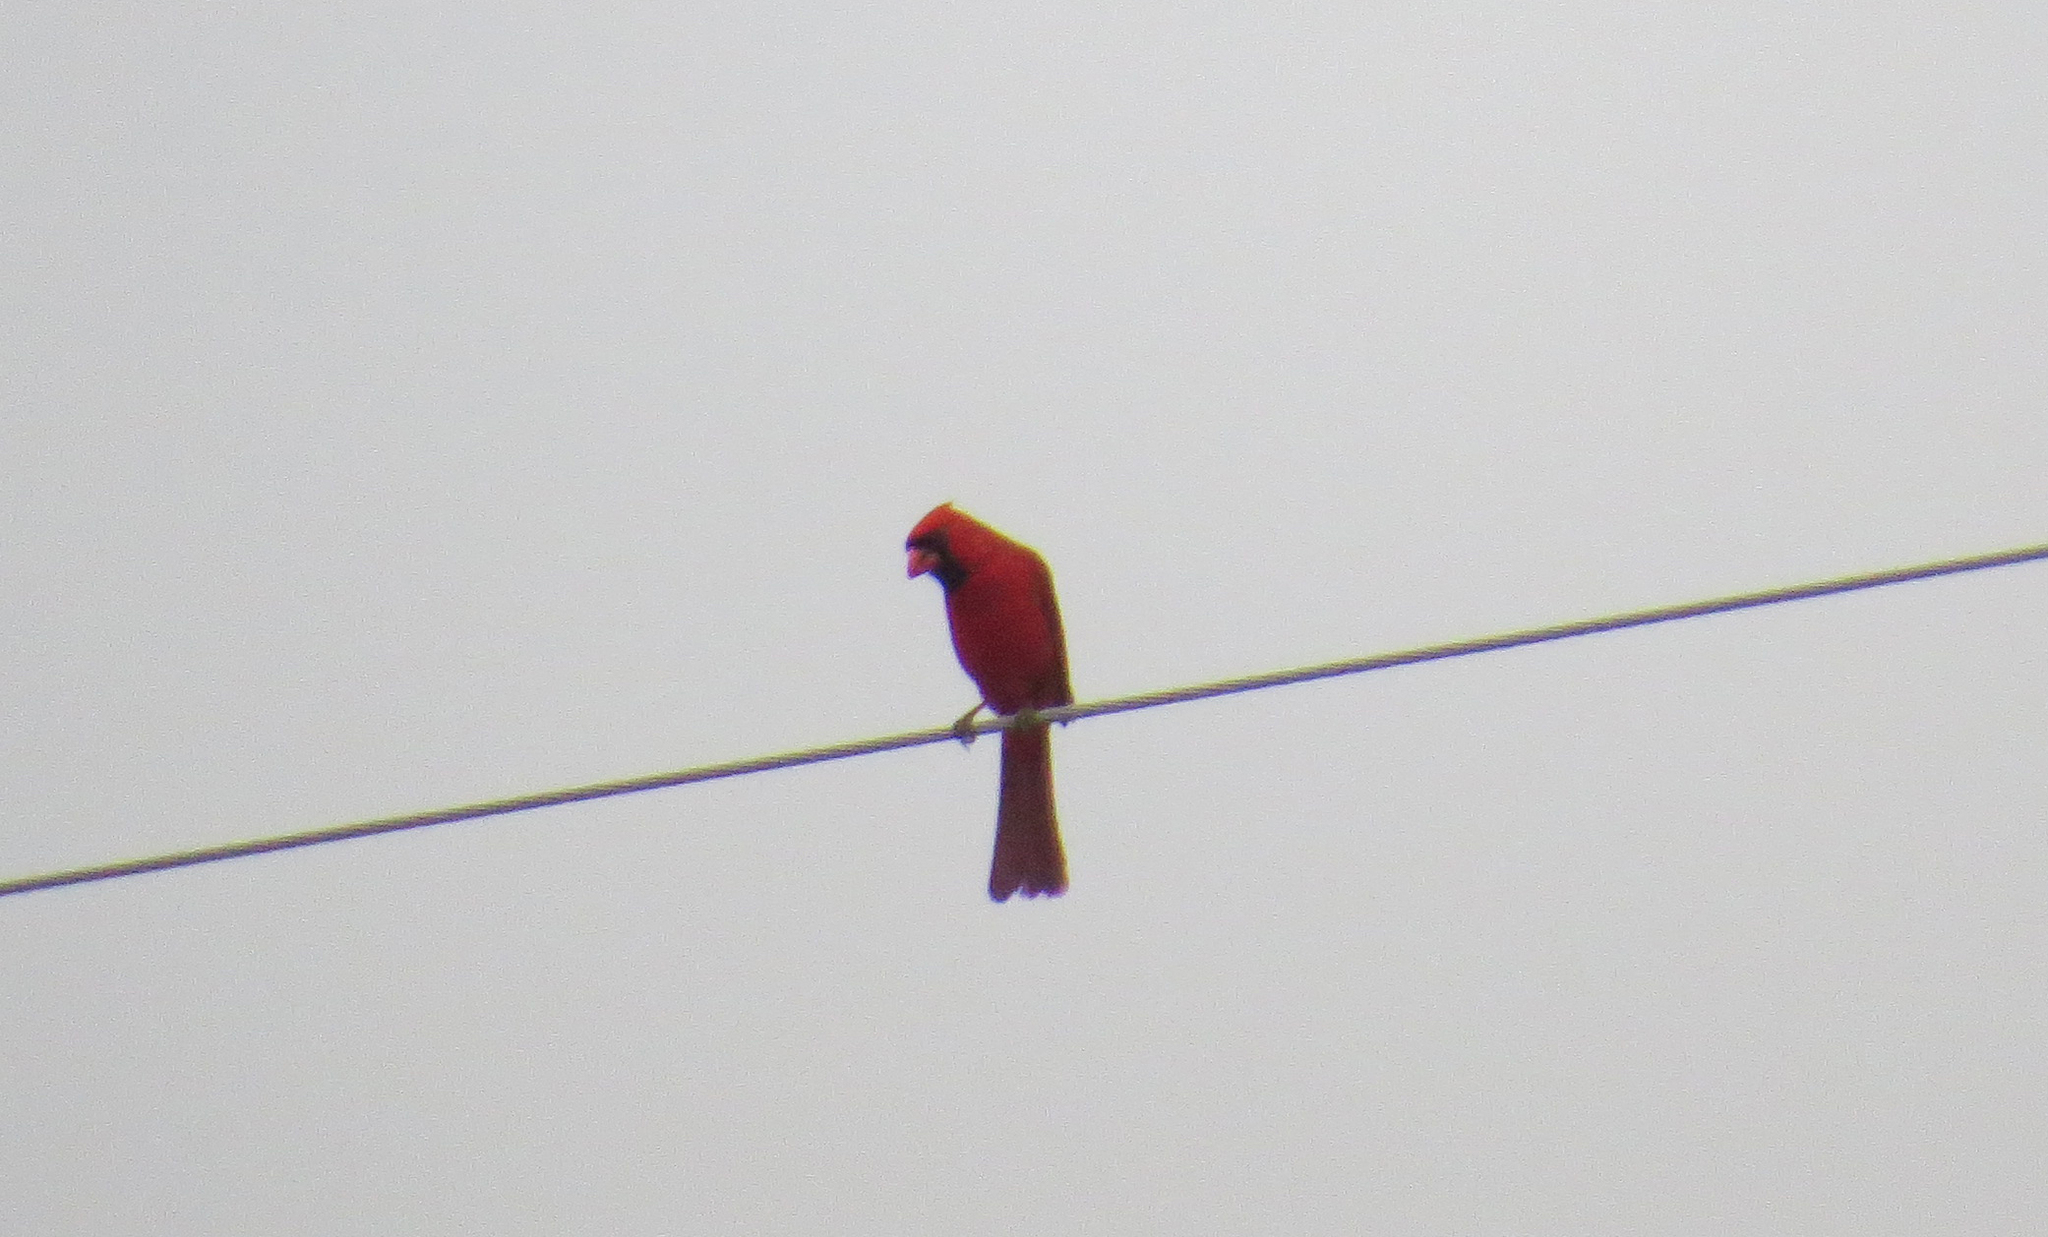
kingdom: Animalia
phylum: Chordata
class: Aves
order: Passeriformes
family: Cardinalidae
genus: Cardinalis
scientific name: Cardinalis cardinalis
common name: Northern cardinal
